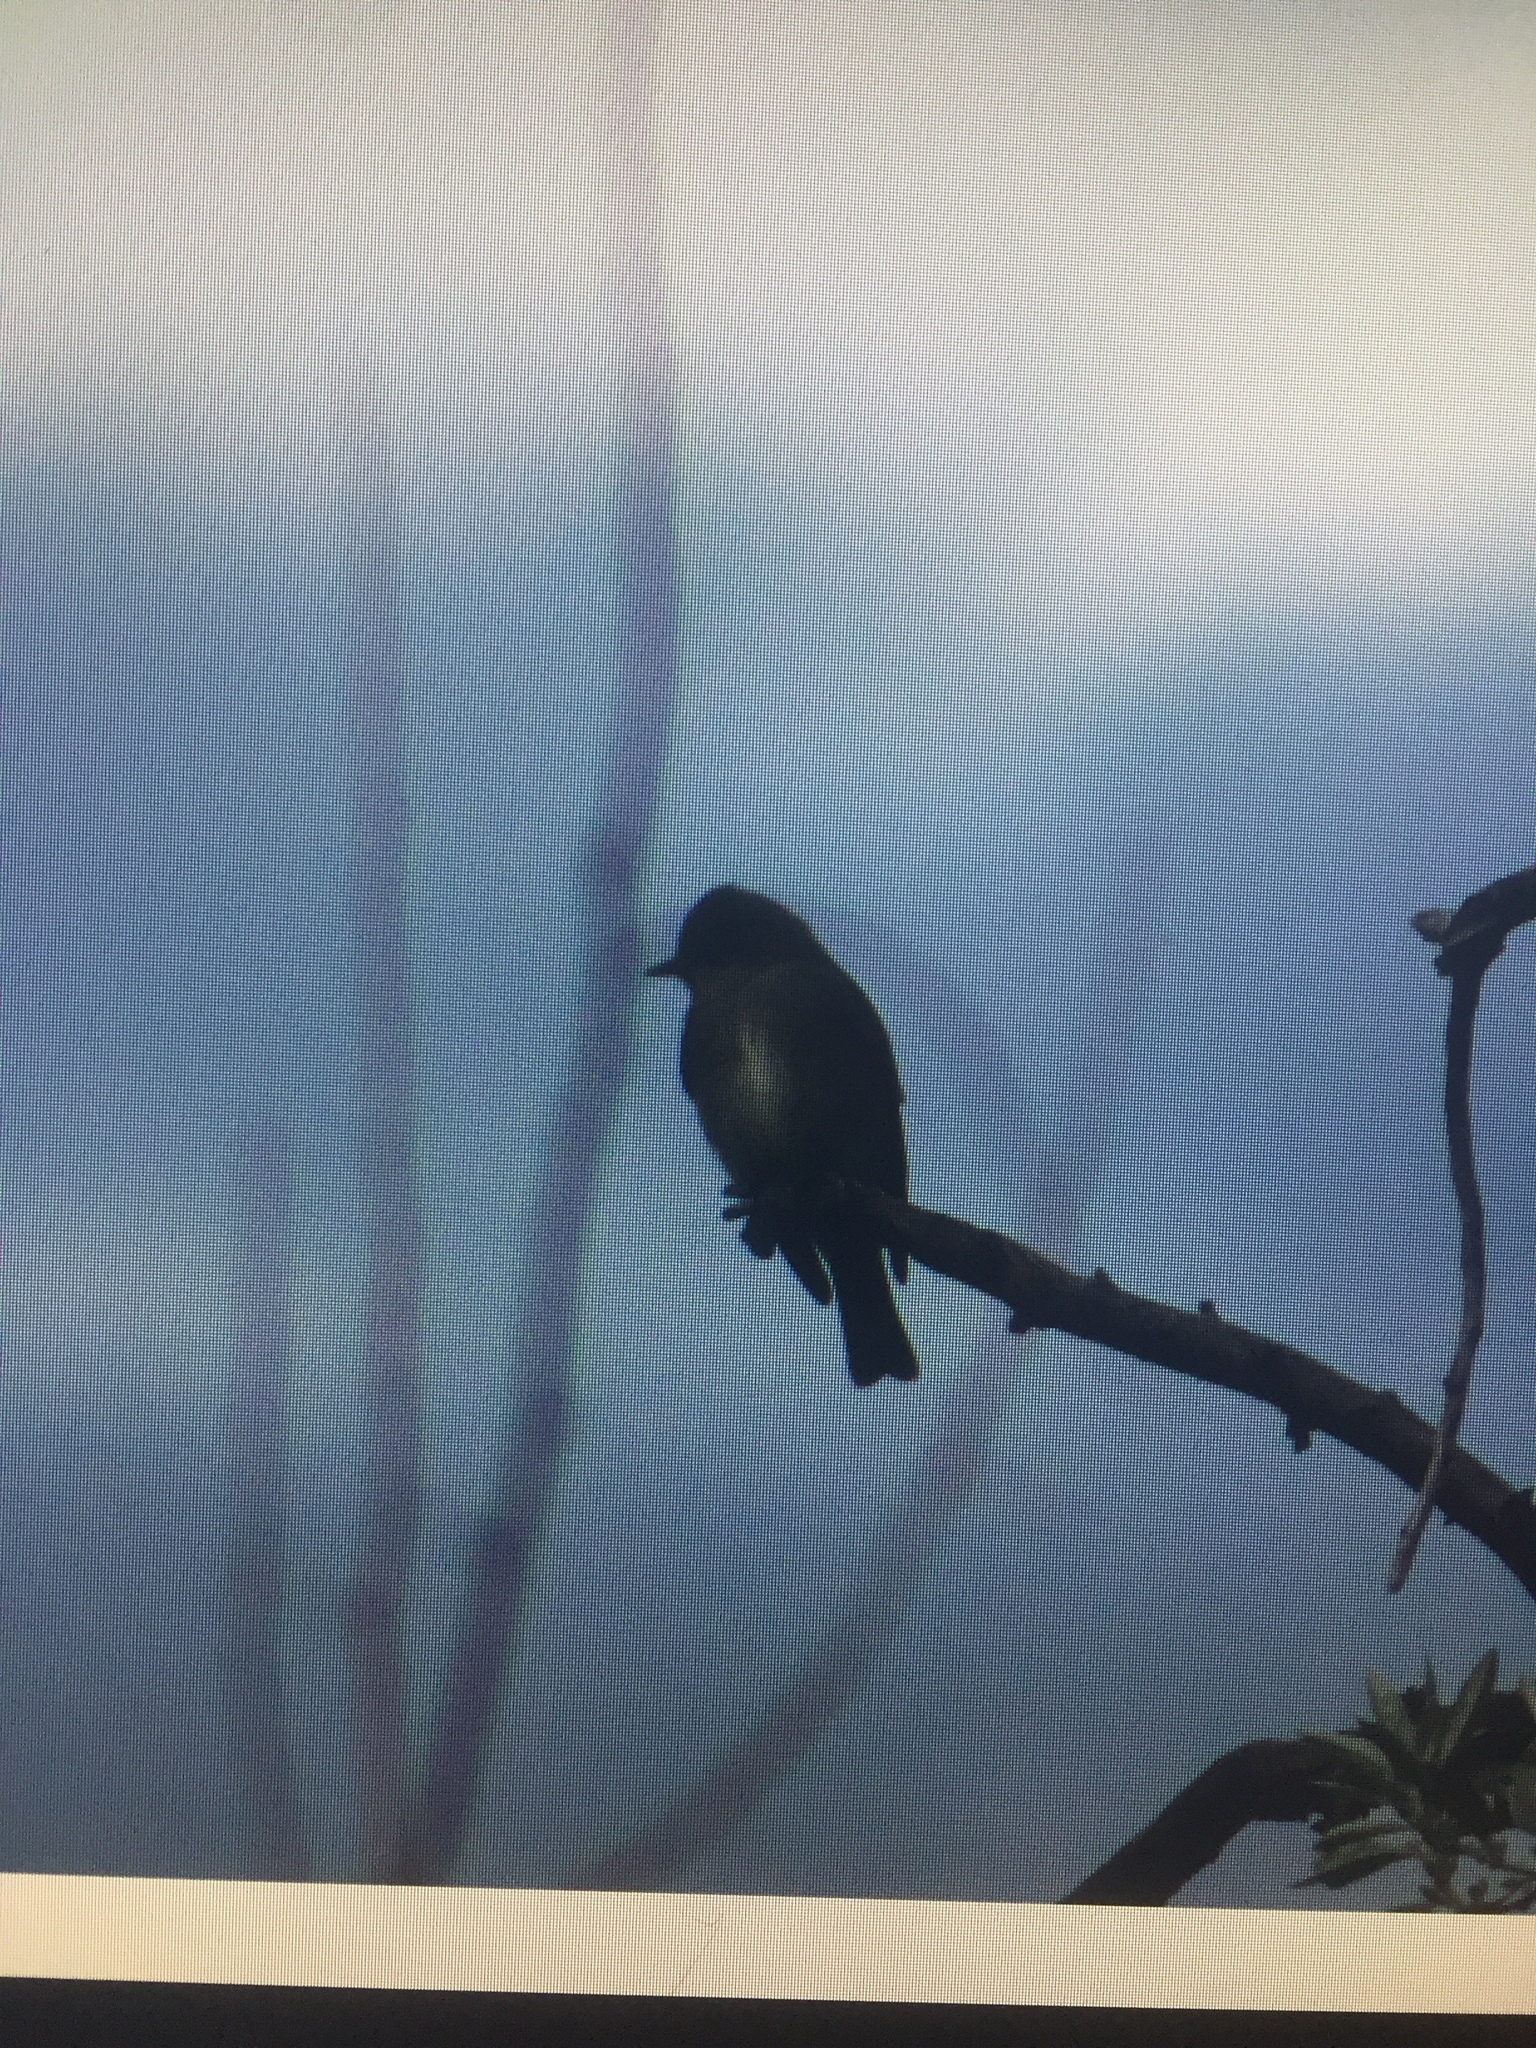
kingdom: Animalia
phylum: Chordata
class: Aves
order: Passeriformes
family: Tyrannidae
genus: Contopus
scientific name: Contopus sordidulus
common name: Western wood-pewee
